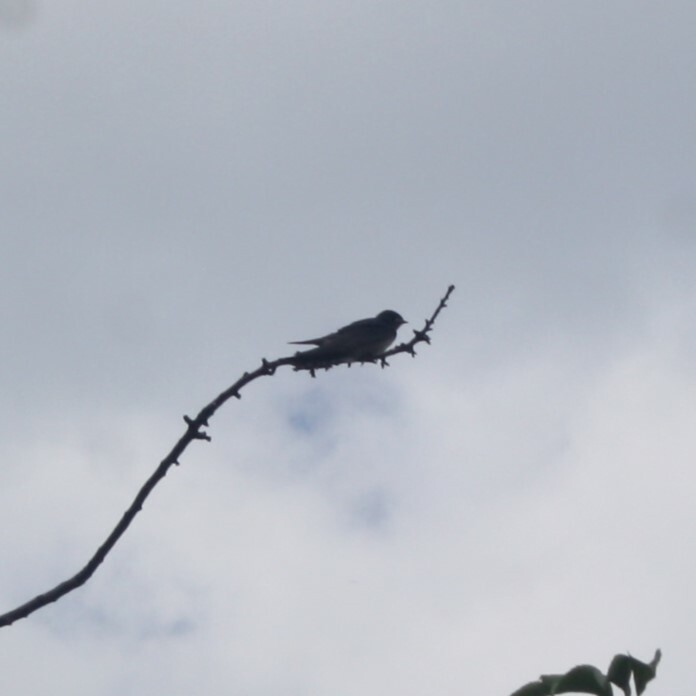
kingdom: Animalia
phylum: Chordata
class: Aves
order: Passeriformes
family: Hirundinidae
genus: Hirundo
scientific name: Hirundo rustica
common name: Barn swallow
